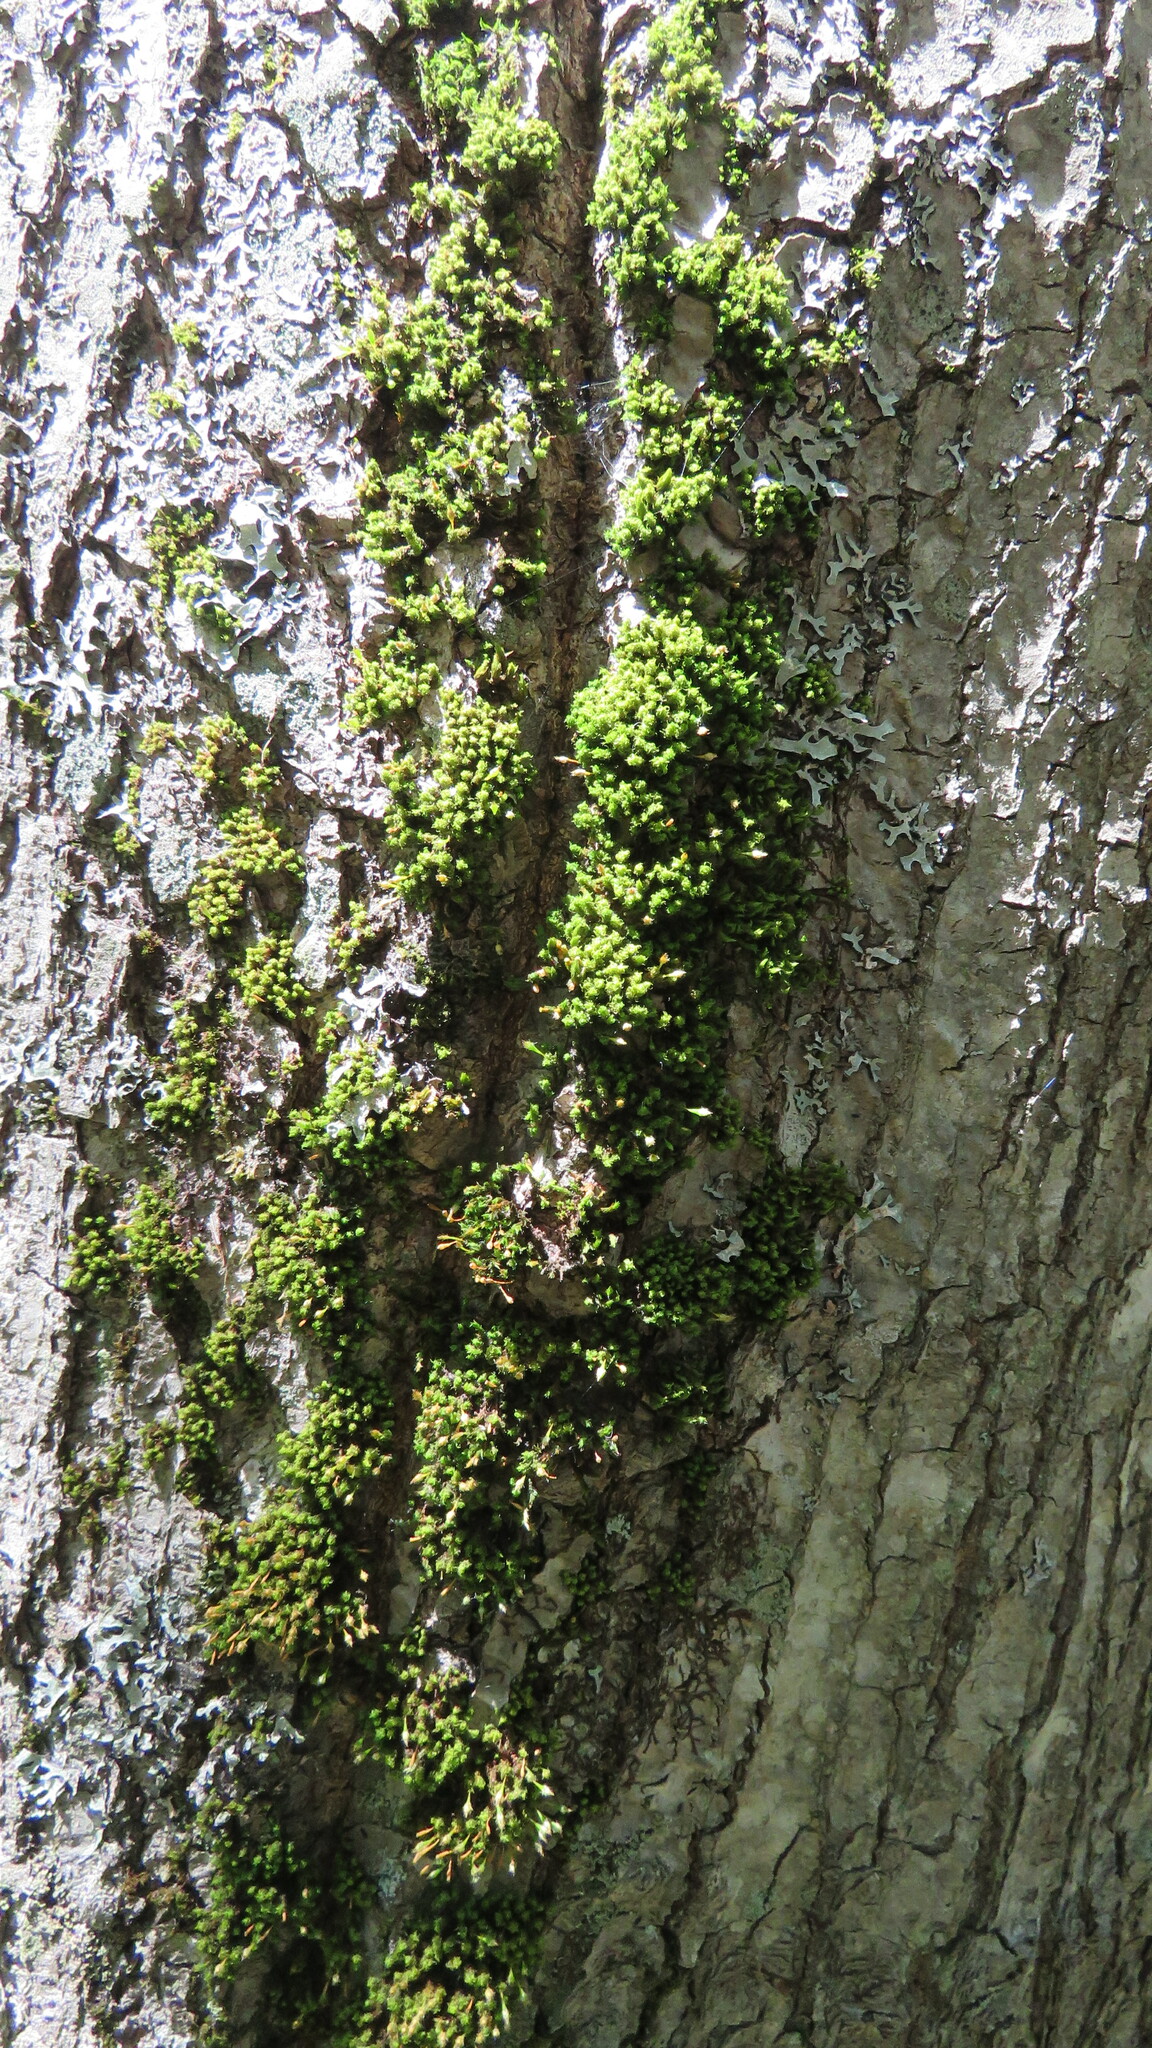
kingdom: Plantae
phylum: Bryophyta
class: Bryopsida
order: Orthotrichales
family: Orthotrichaceae
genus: Ulota
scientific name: Ulota crispa
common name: Crisped pincushion moss
